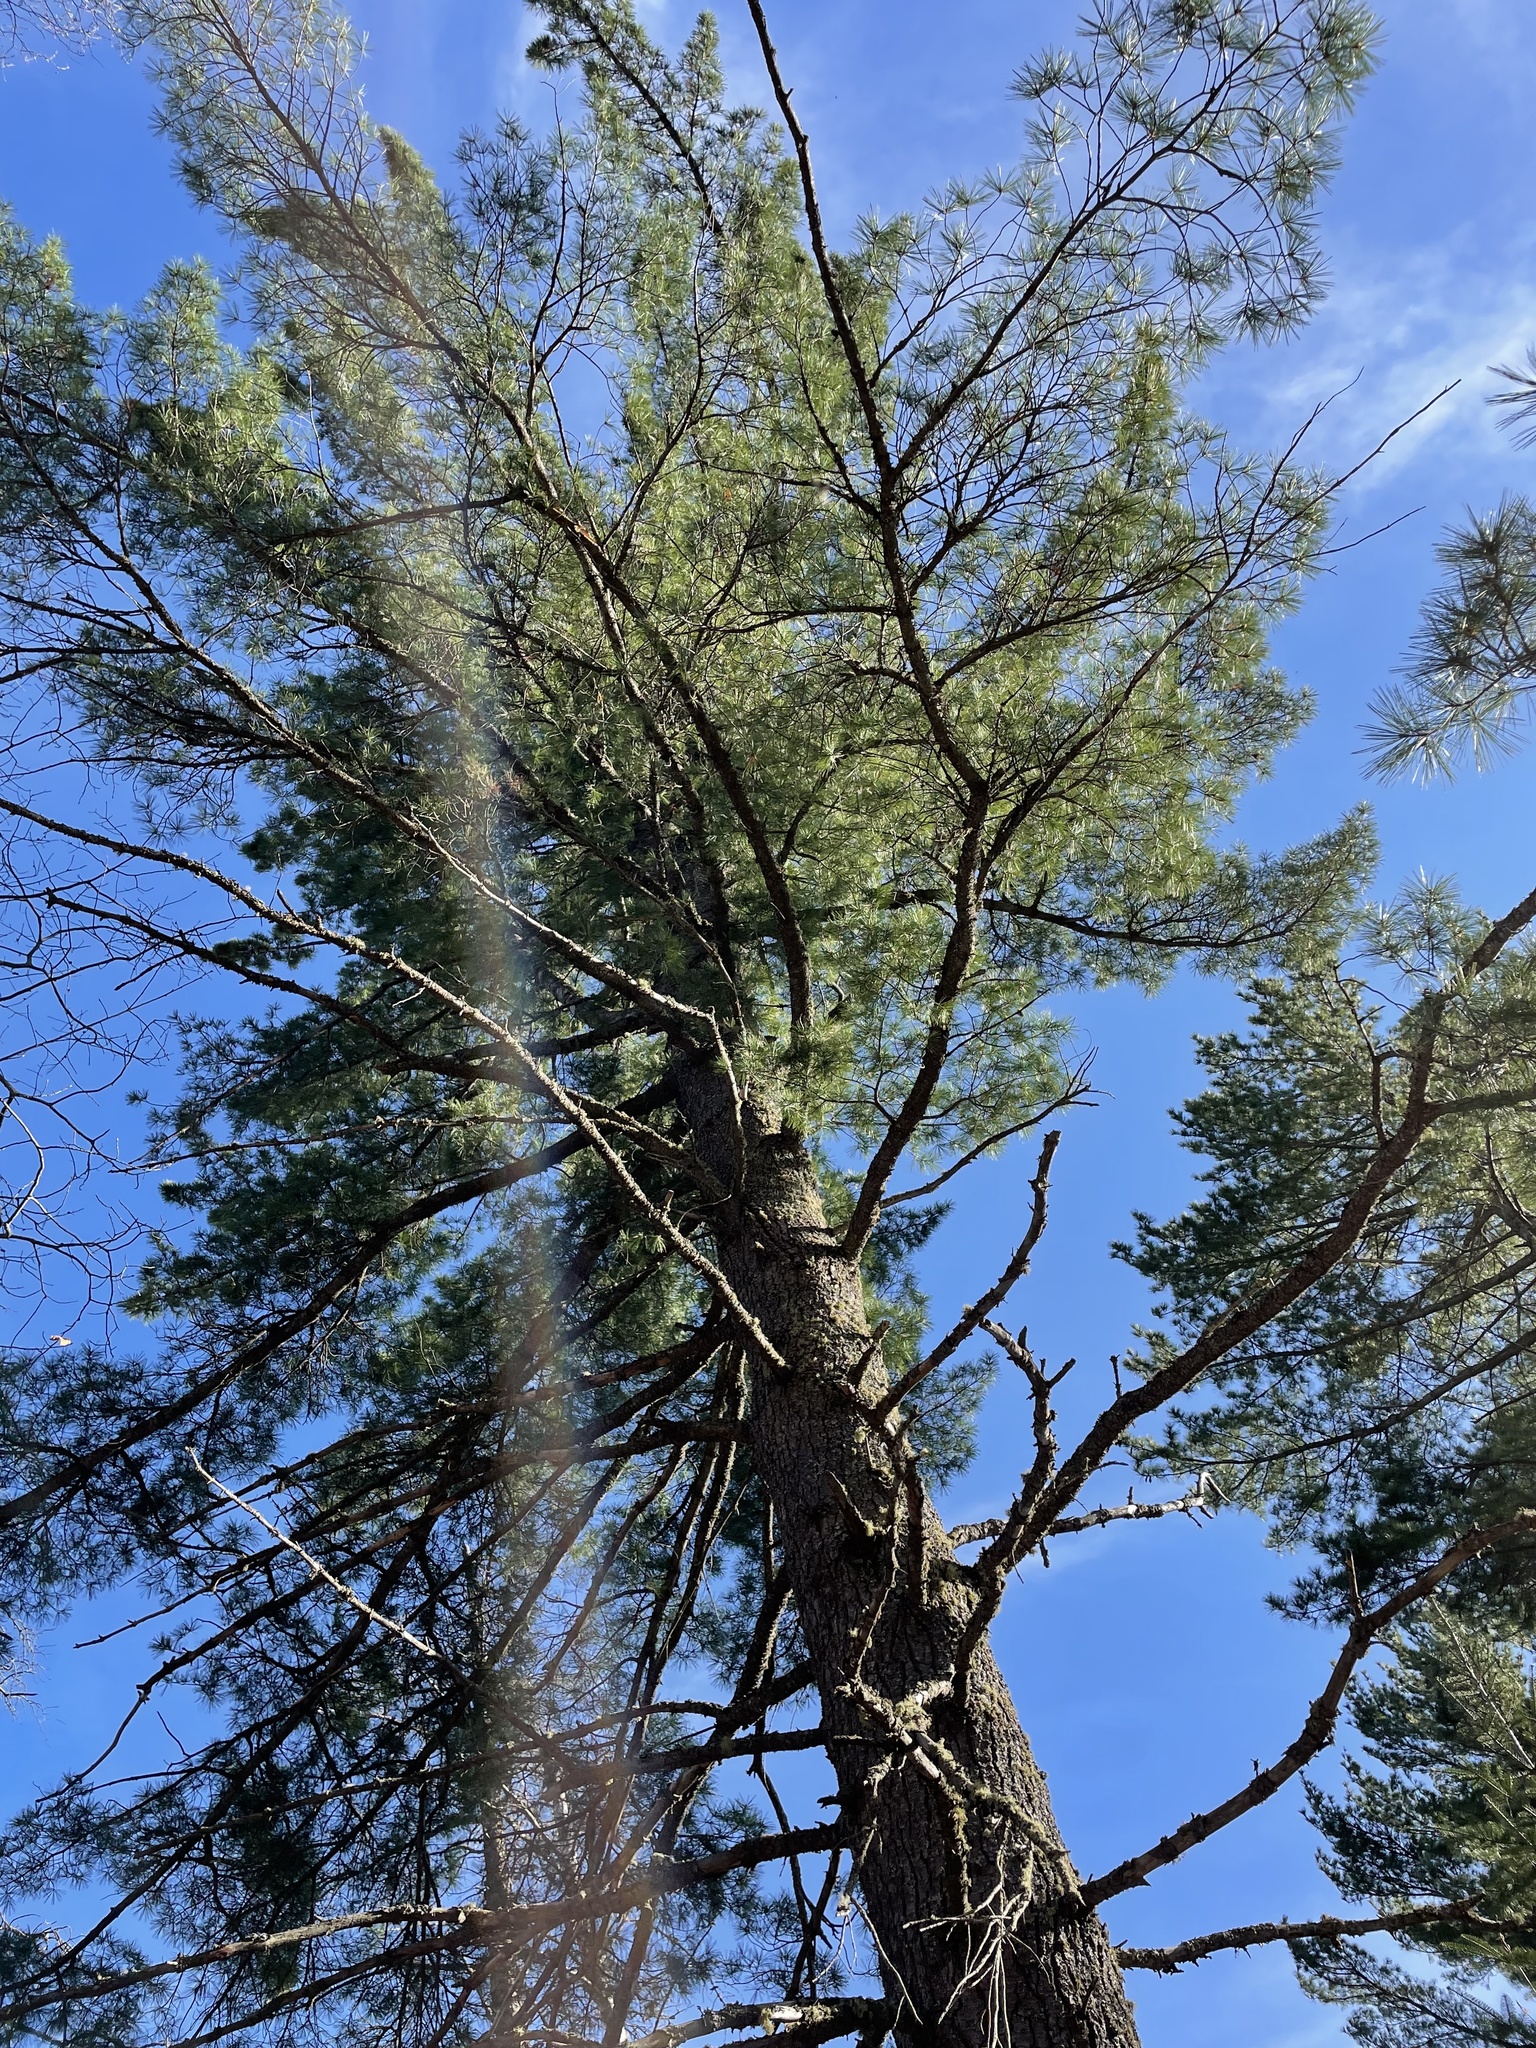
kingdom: Plantae
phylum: Tracheophyta
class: Pinopsida
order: Pinales
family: Pinaceae
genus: Pinus
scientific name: Pinus strobus
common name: Weymouth pine
